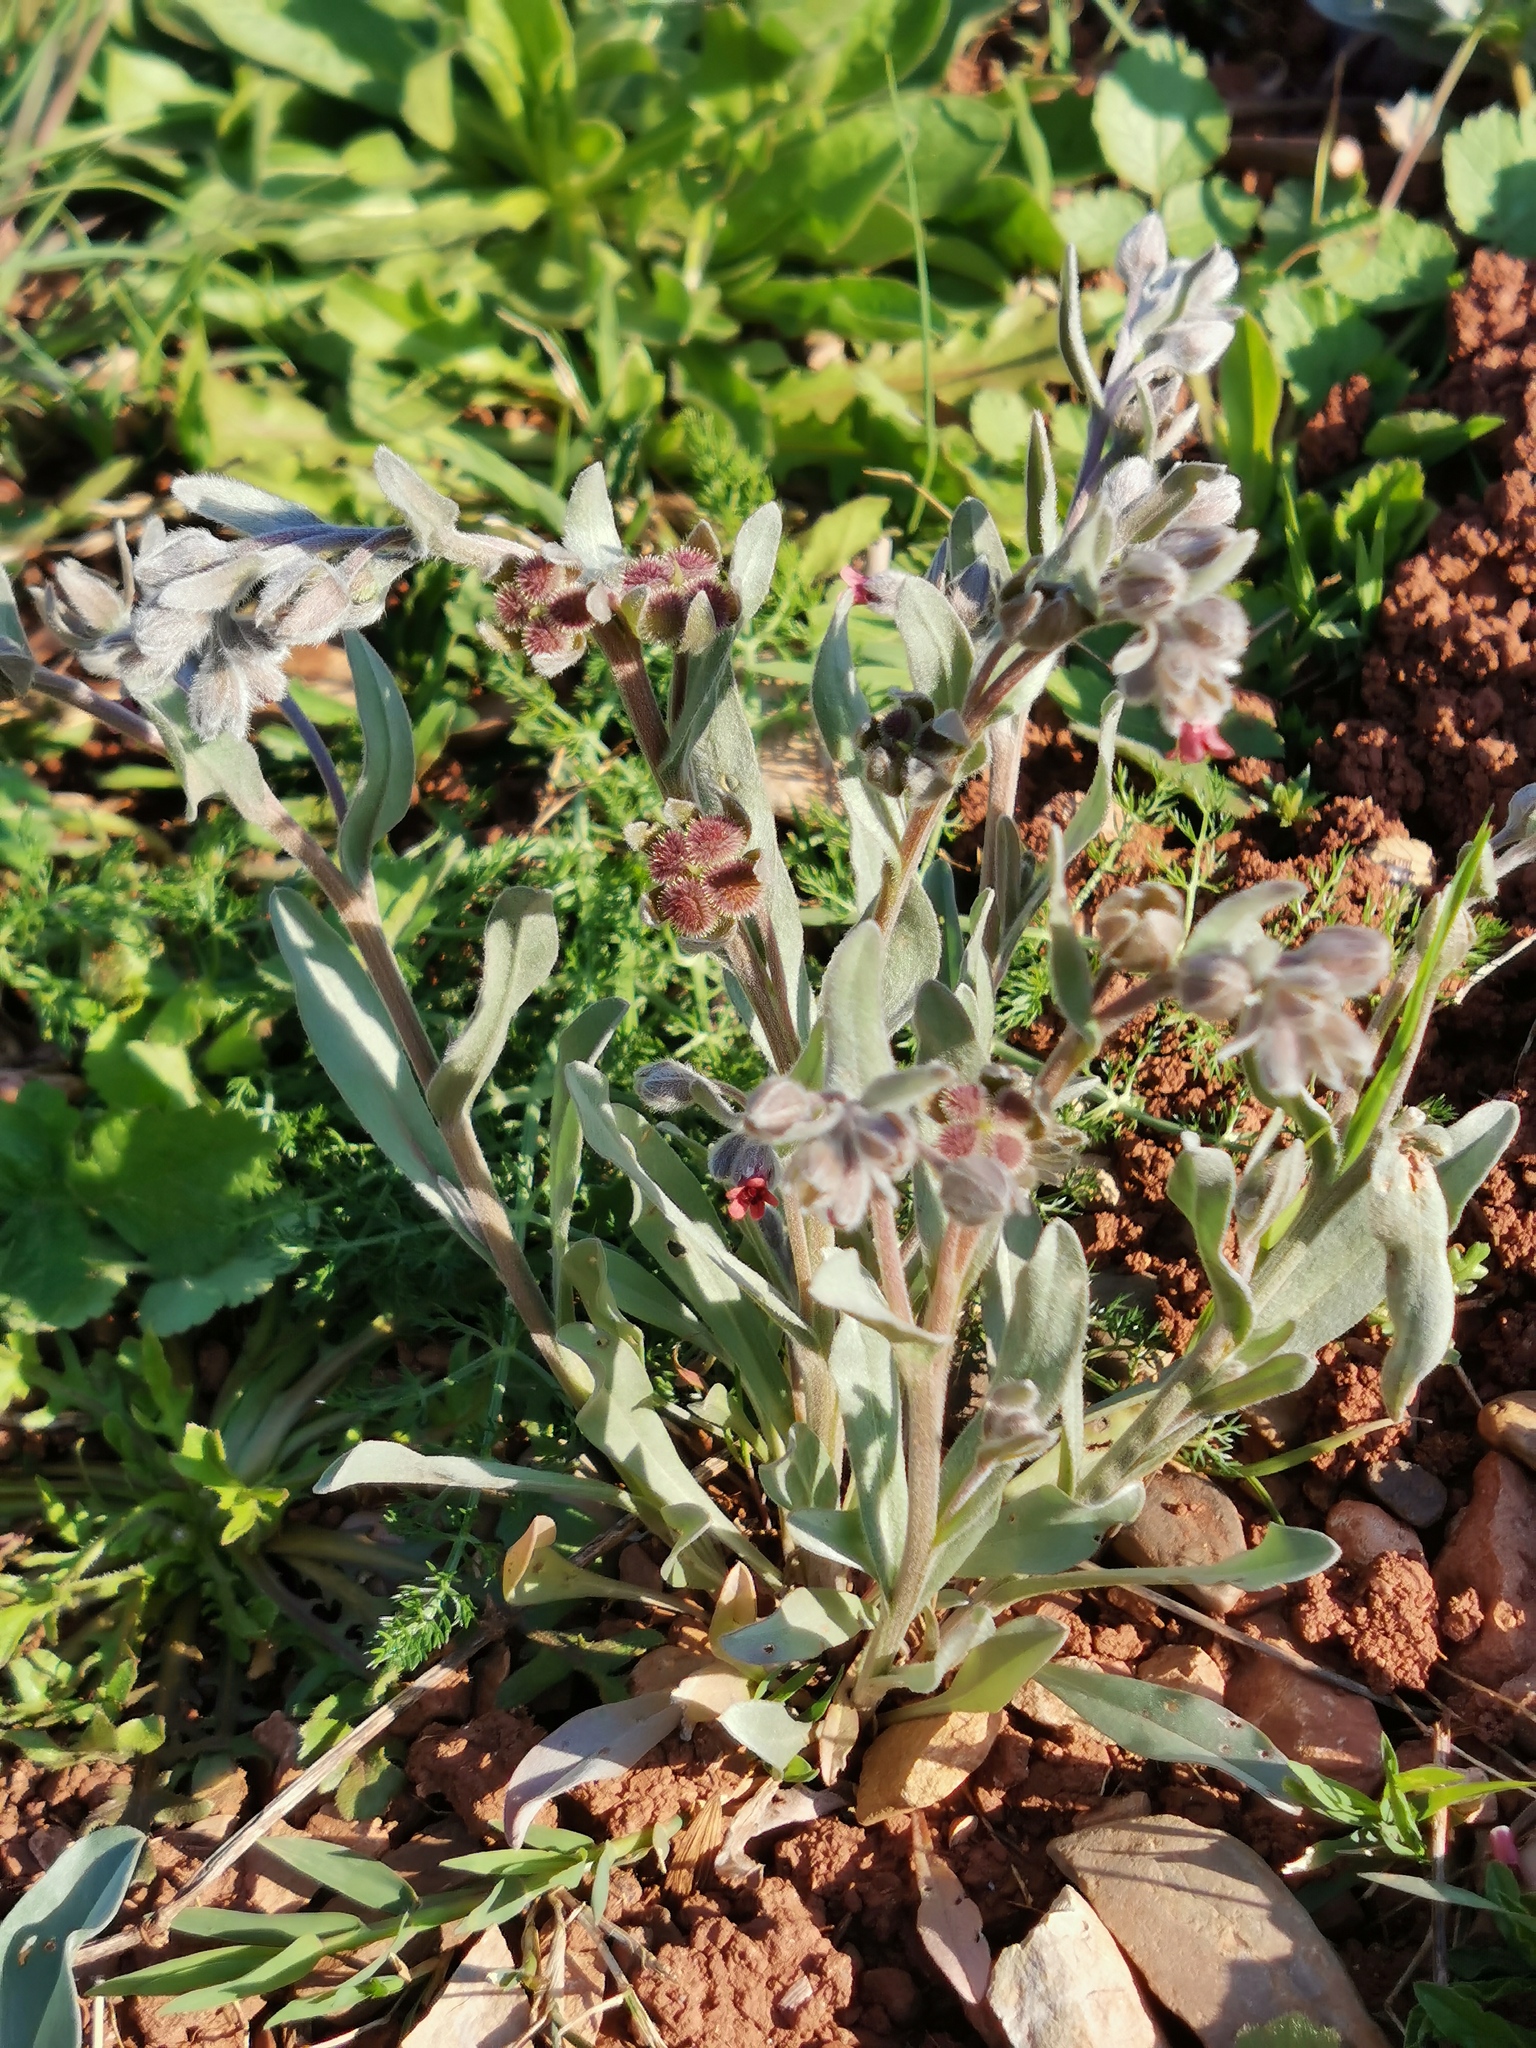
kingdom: Plantae
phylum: Tracheophyta
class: Magnoliopsida
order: Boraginales
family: Boraginaceae
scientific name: Boraginaceae
